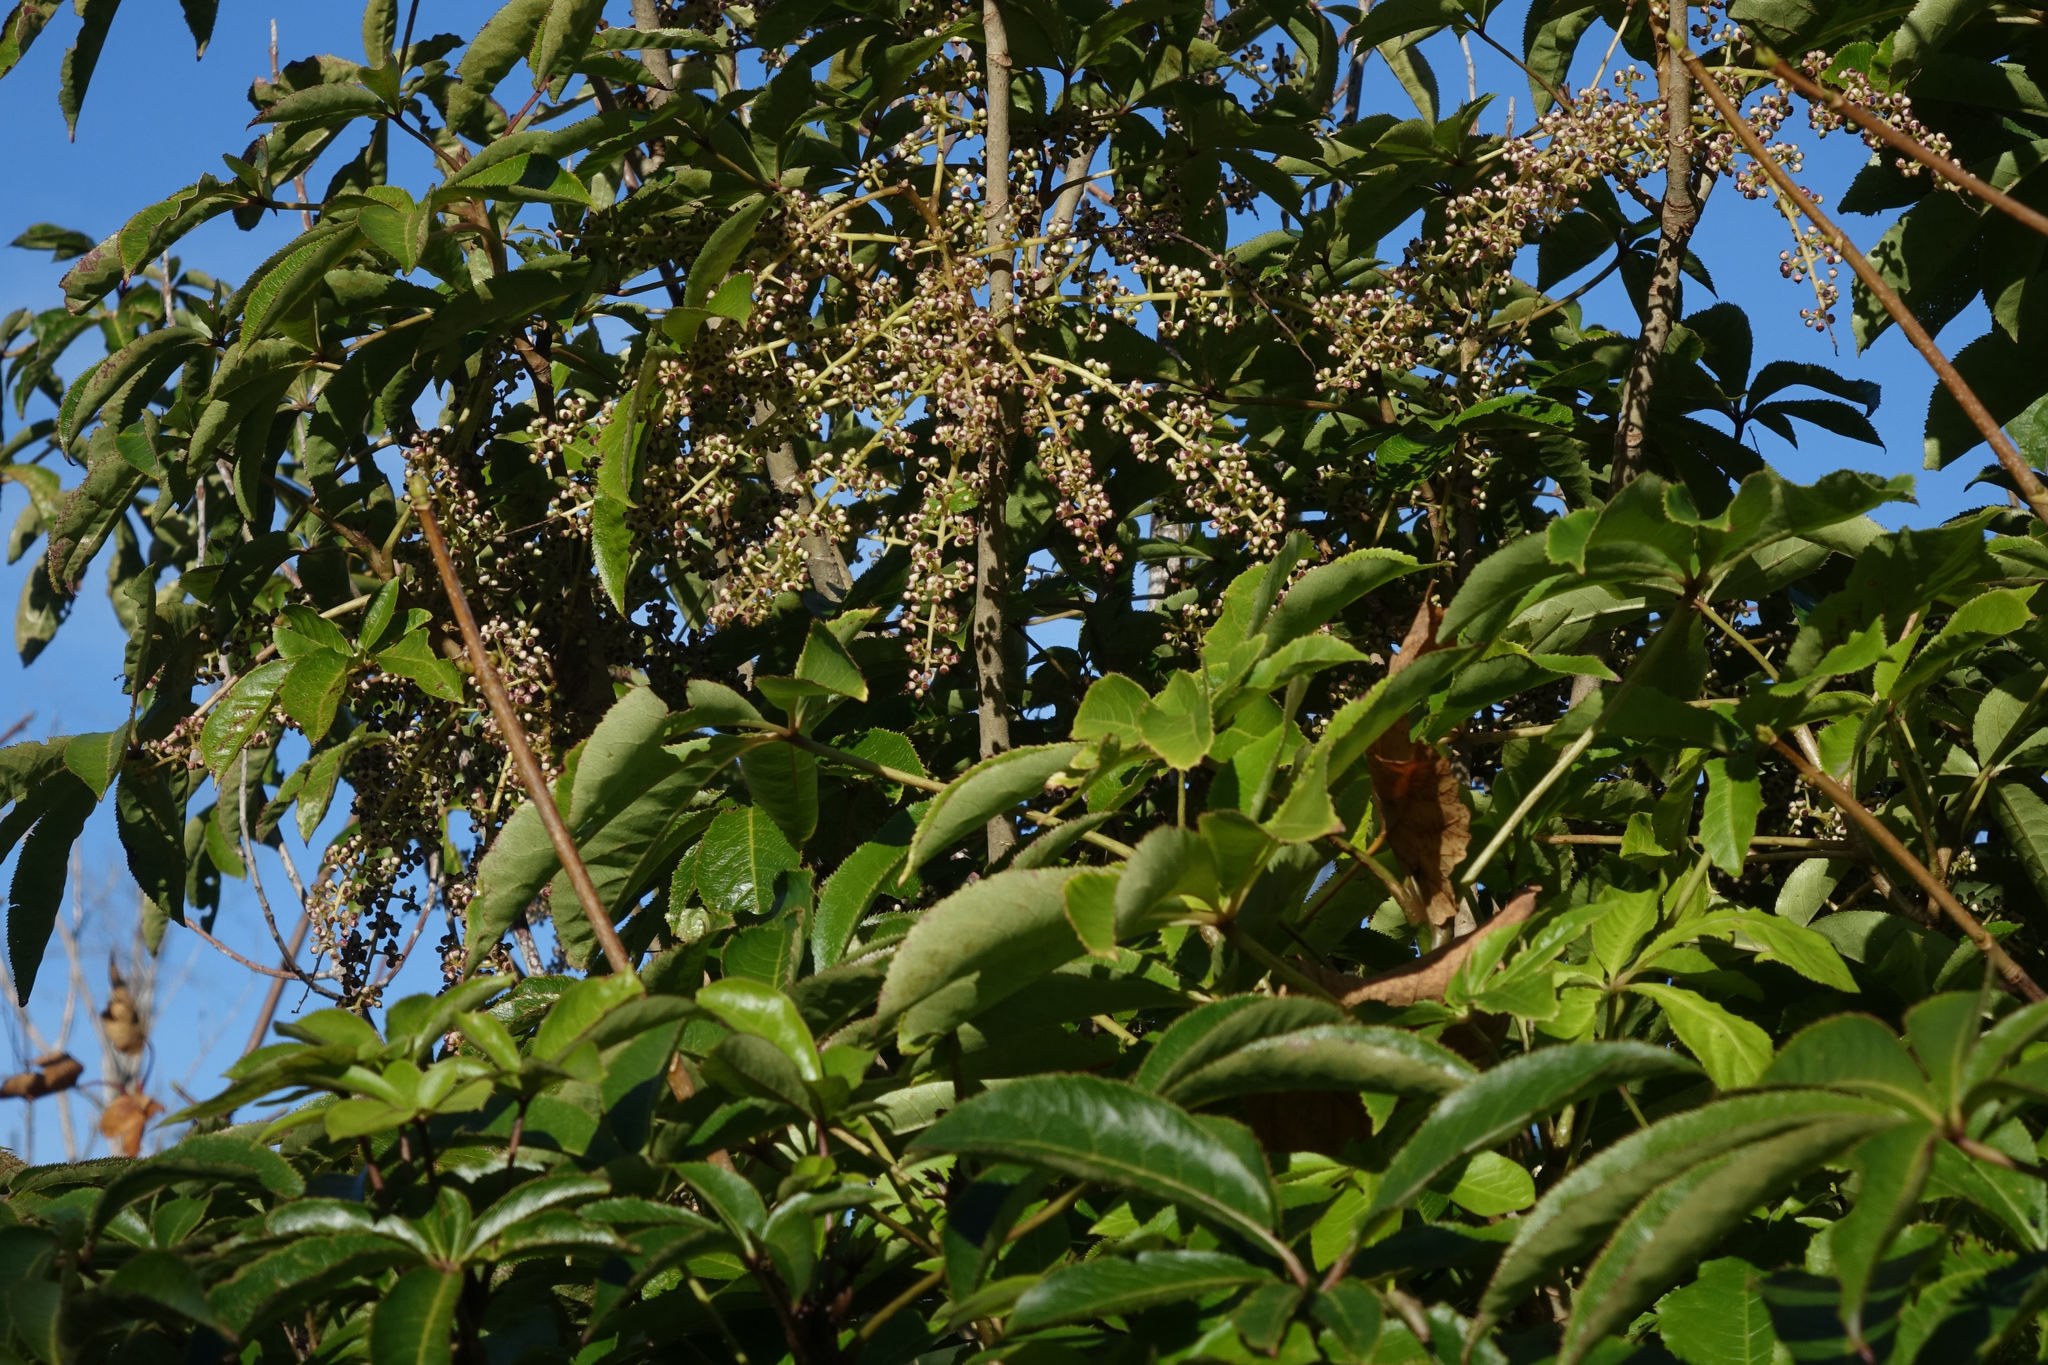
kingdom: Plantae
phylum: Tracheophyta
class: Magnoliopsida
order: Apiales
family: Araliaceae
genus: Schefflera
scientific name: Schefflera digitata
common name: Pate
